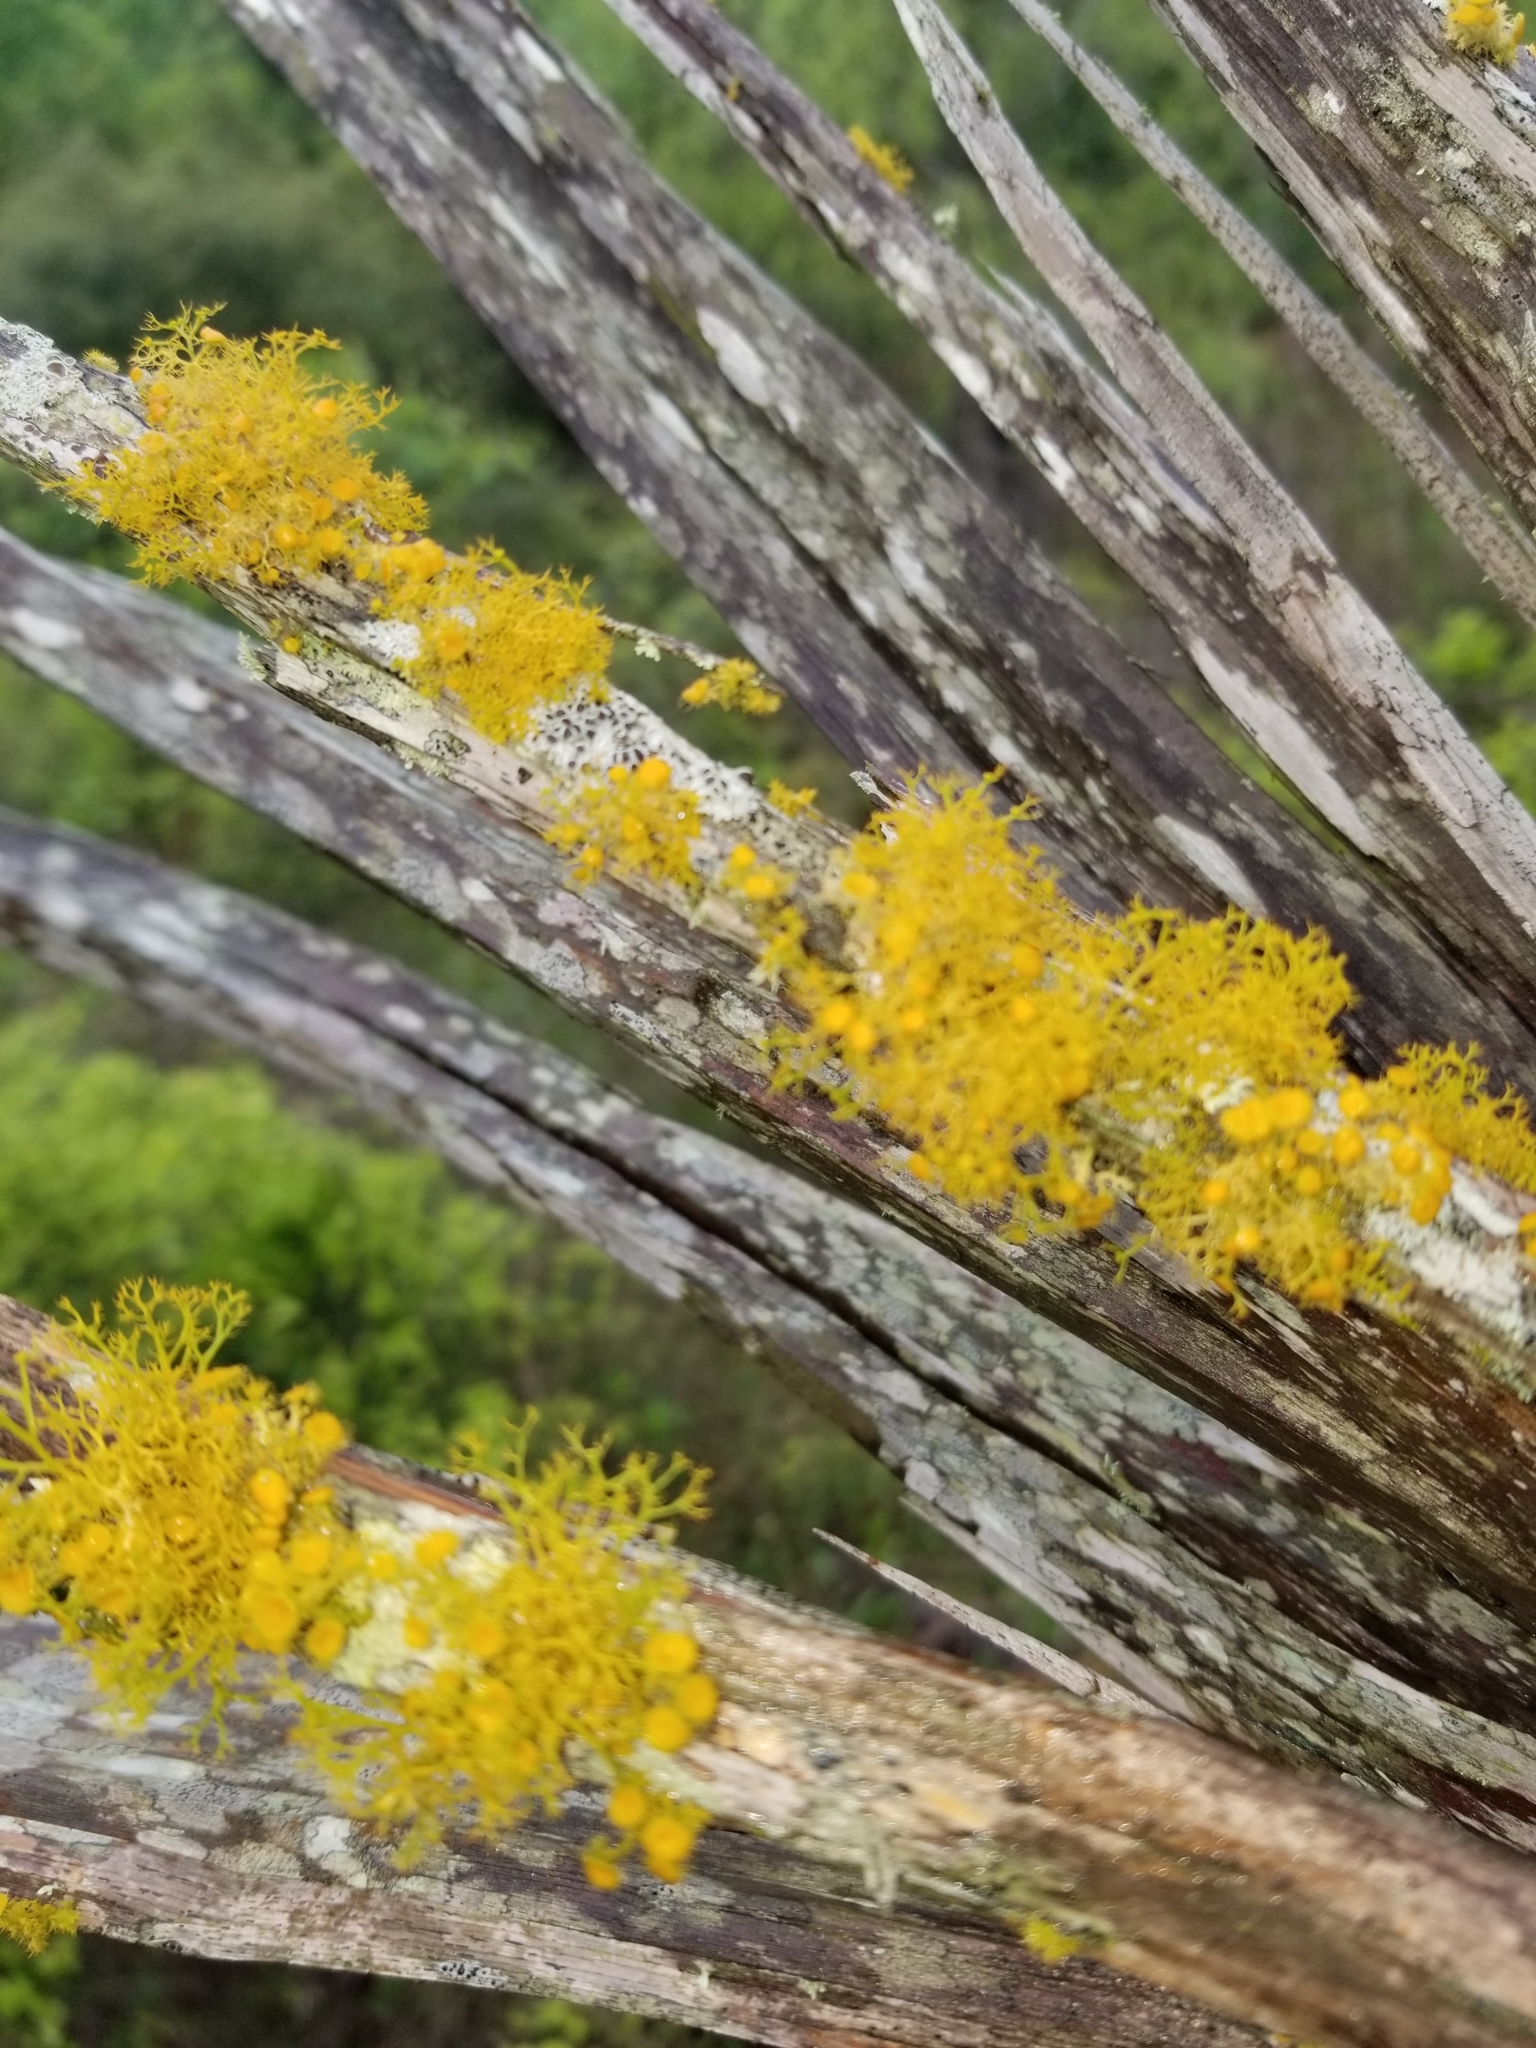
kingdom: Fungi
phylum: Ascomycota
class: Lecanoromycetes
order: Teloschistales
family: Teloschistaceae
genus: Teloschistes
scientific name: Teloschistes exilis
